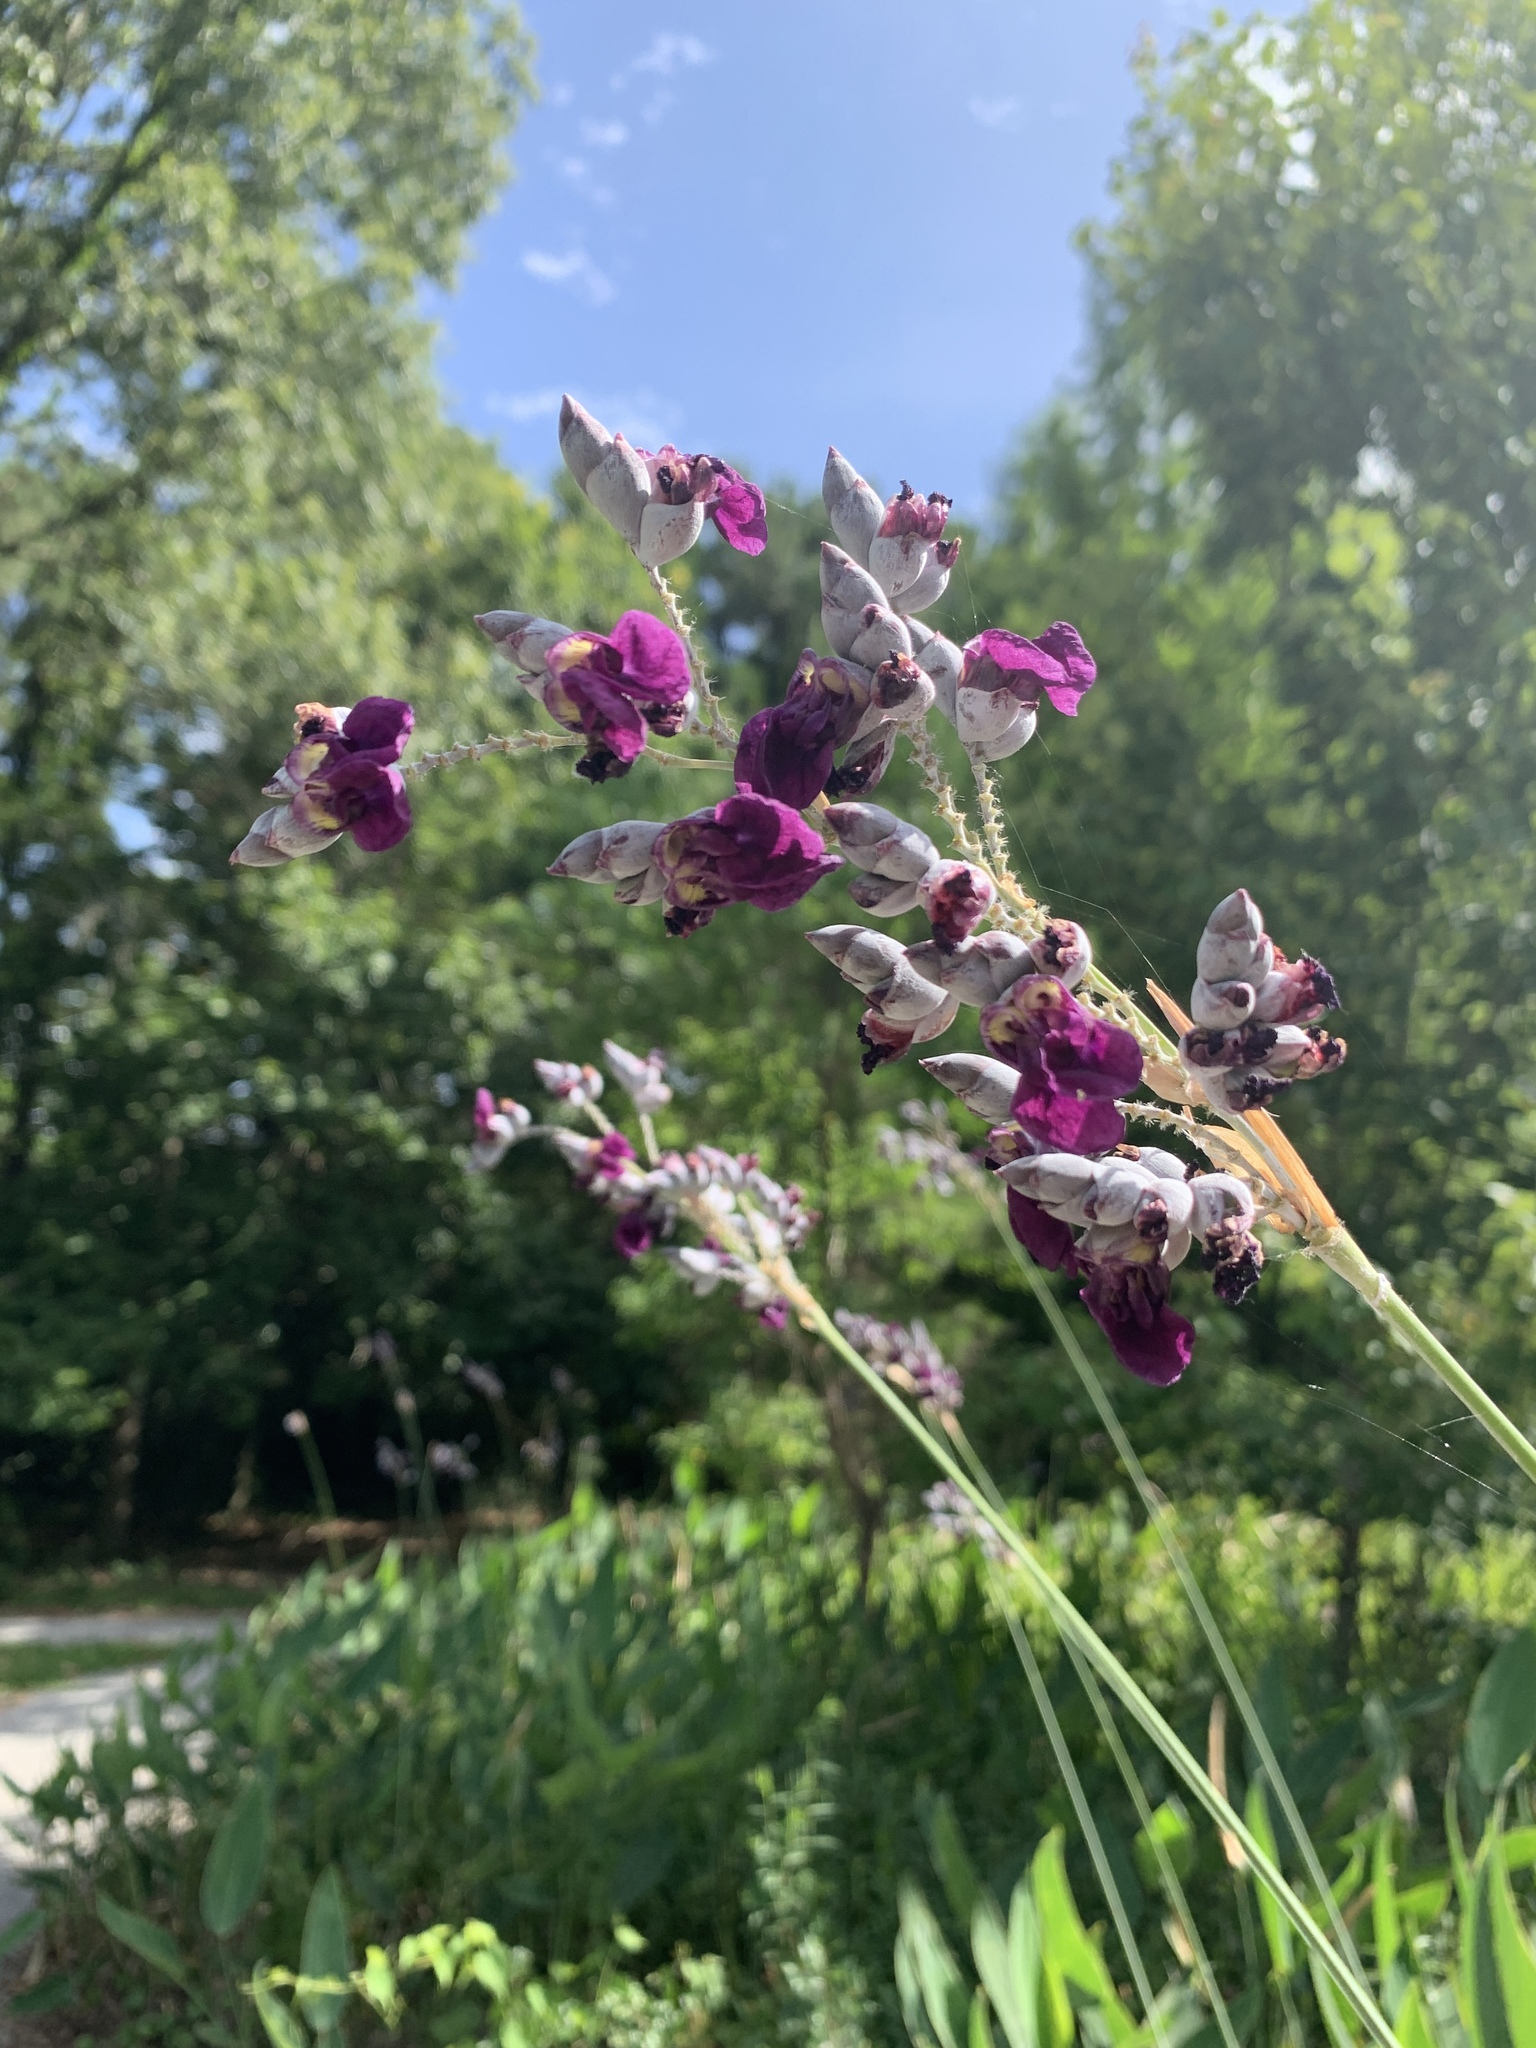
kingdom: Plantae
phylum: Tracheophyta
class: Liliopsida
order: Zingiberales
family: Marantaceae
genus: Thalia
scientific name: Thalia dealbata
